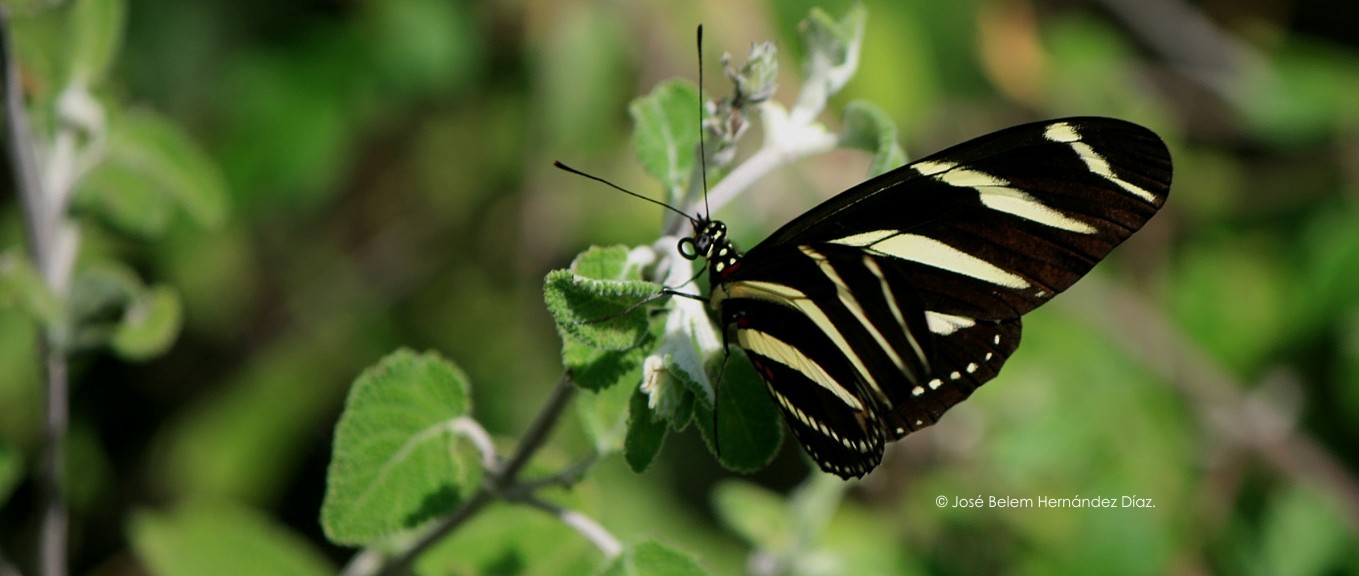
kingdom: Animalia
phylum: Arthropoda
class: Insecta
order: Lepidoptera
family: Nymphalidae
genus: Heliconius
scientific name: Heliconius charithonia
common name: Zebra long wing
